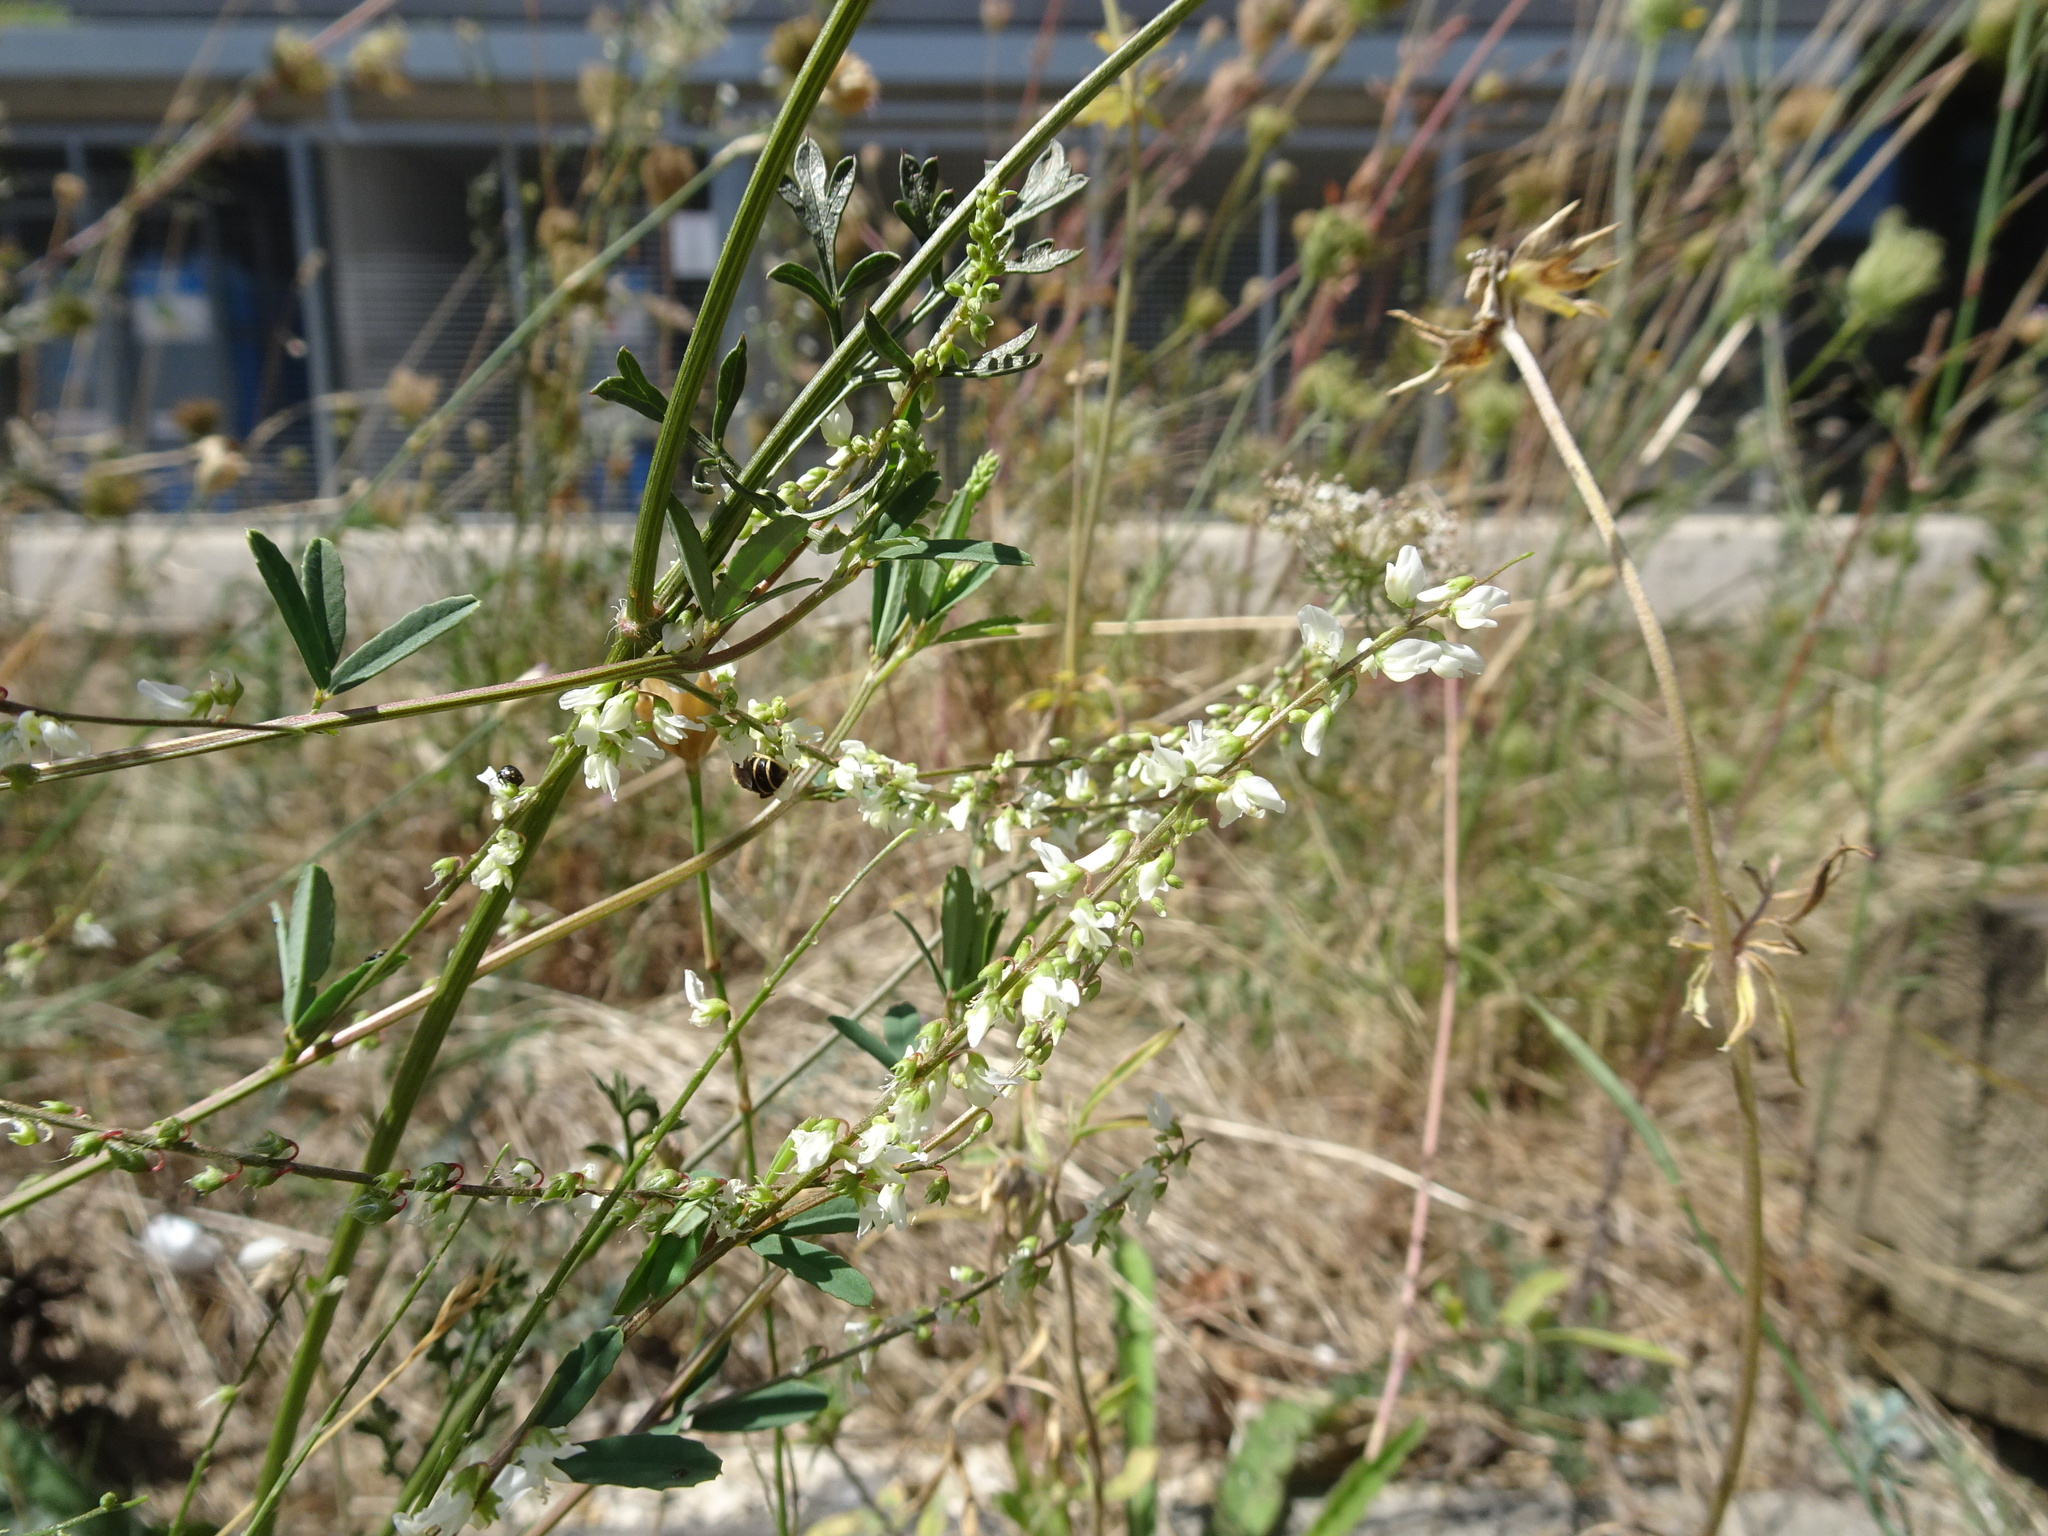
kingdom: Plantae
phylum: Tracheophyta
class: Magnoliopsida
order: Fabales
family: Fabaceae
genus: Melilotus
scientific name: Melilotus albus
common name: White melilot
